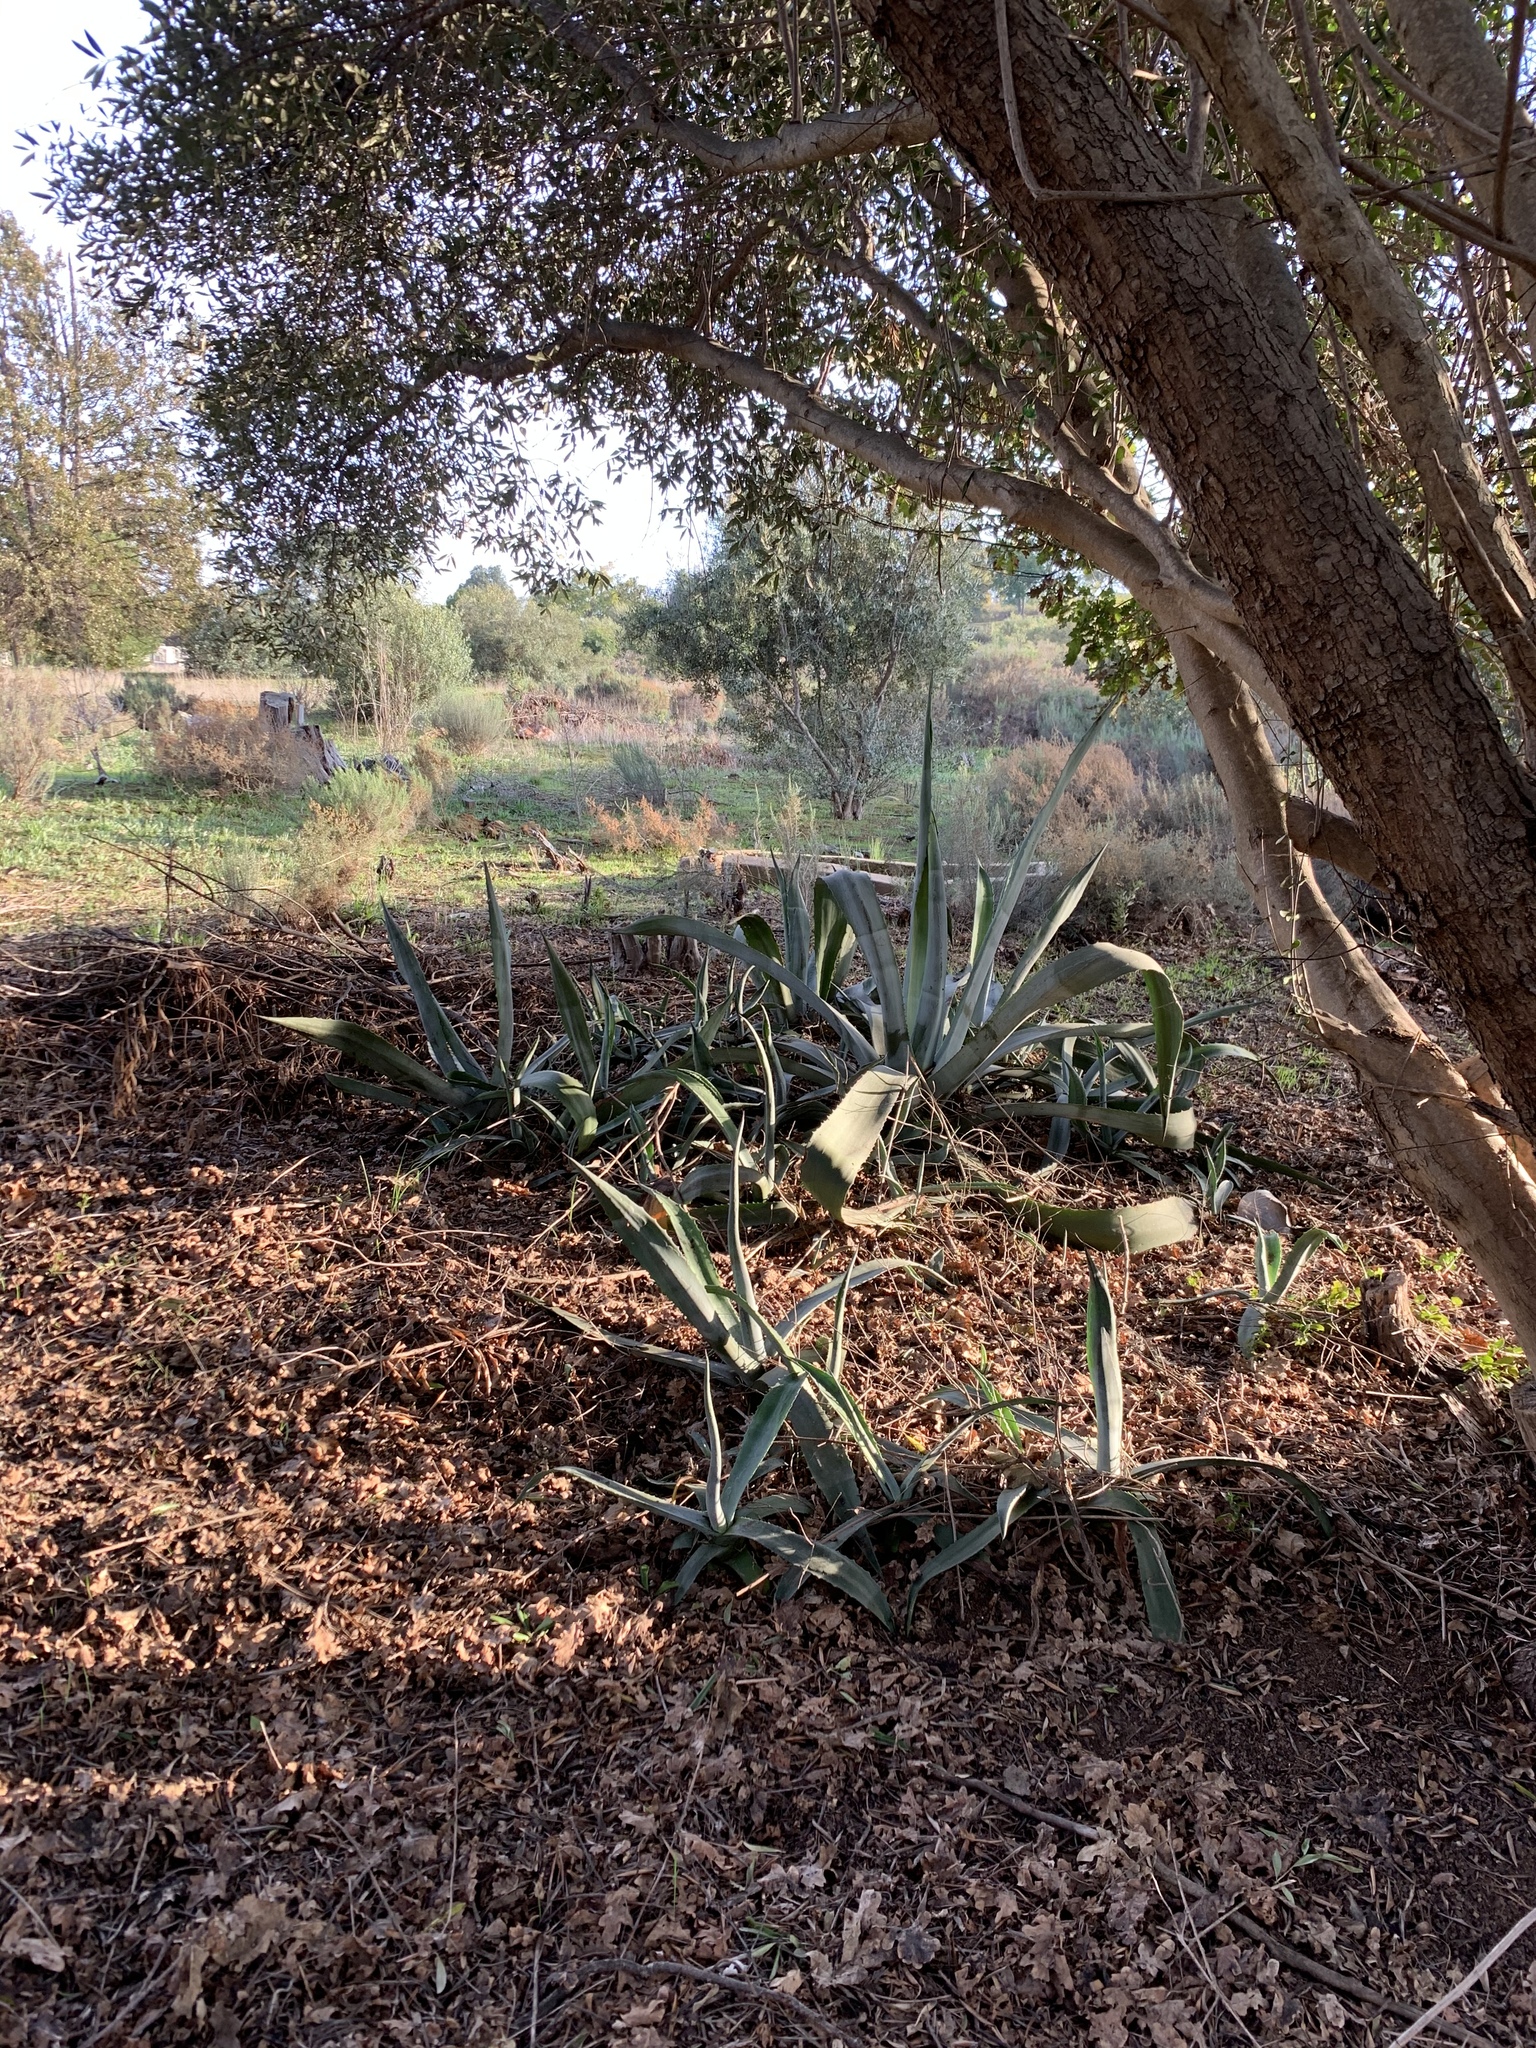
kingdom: Plantae
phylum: Tracheophyta
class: Liliopsida
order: Asparagales
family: Asparagaceae
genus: Agave
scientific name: Agave americana
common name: Centuryplant
